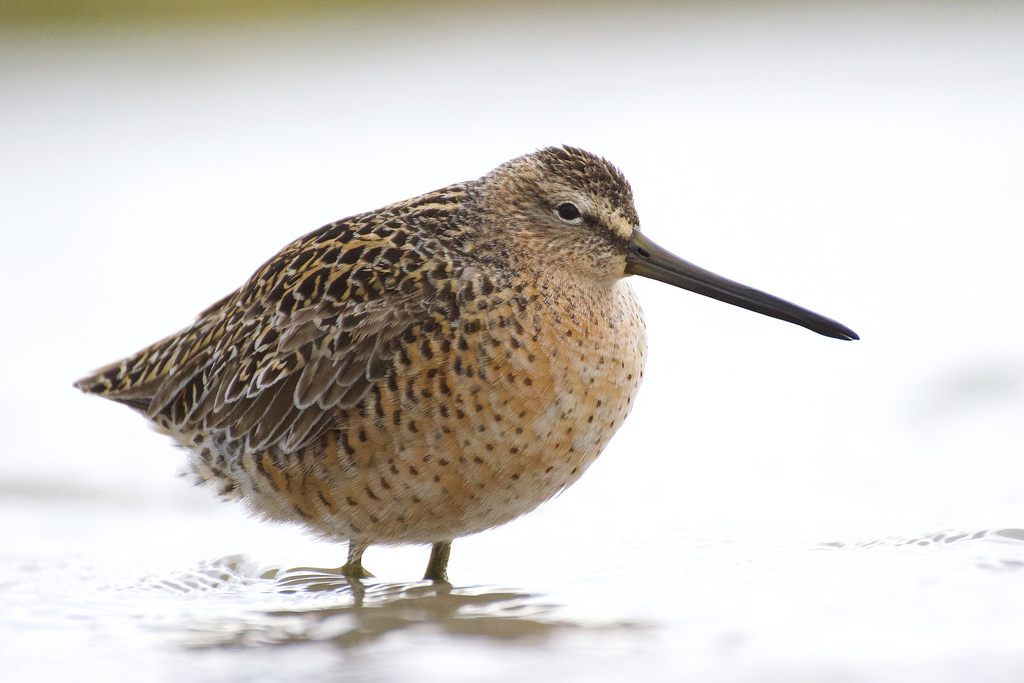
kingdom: Animalia
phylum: Chordata
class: Aves
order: Charadriiformes
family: Scolopacidae
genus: Limnodromus
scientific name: Limnodromus griseus
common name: Short-billed dowitcher
